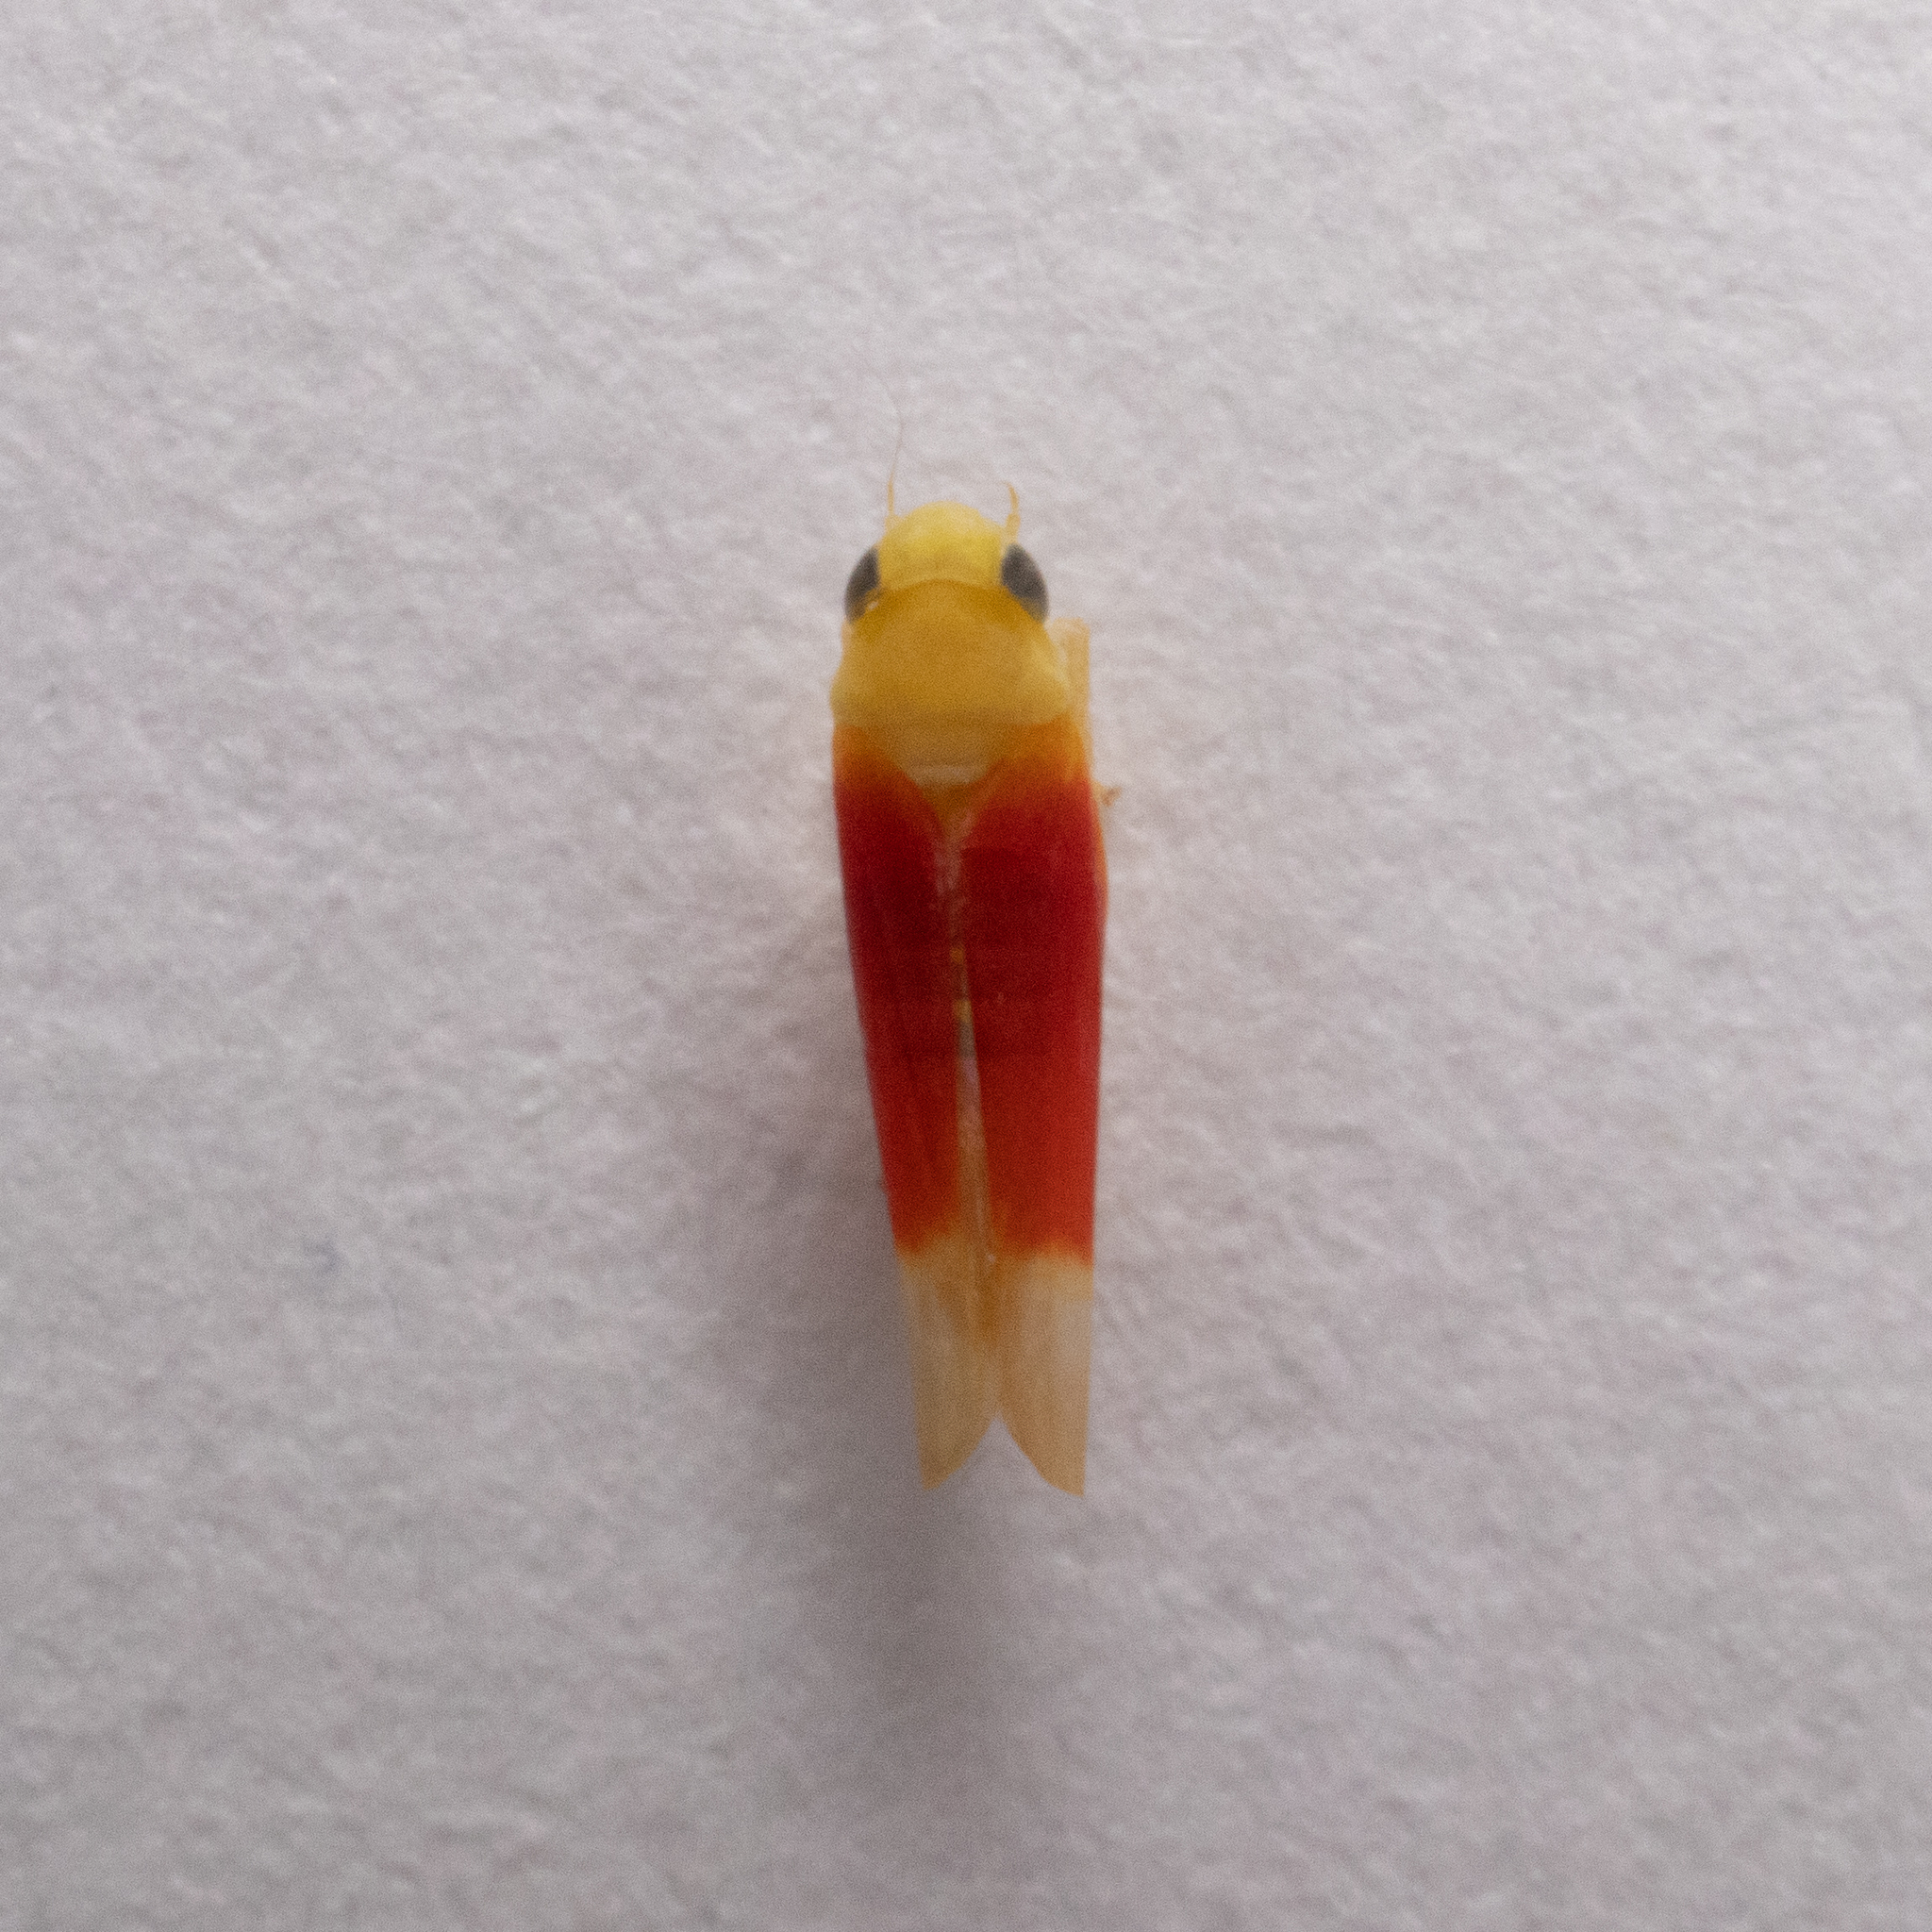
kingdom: Animalia
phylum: Arthropoda
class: Insecta
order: Hemiptera
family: Cicadellidae
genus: Ossiannilssonola
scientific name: Ossiannilssonola tunicarubra
